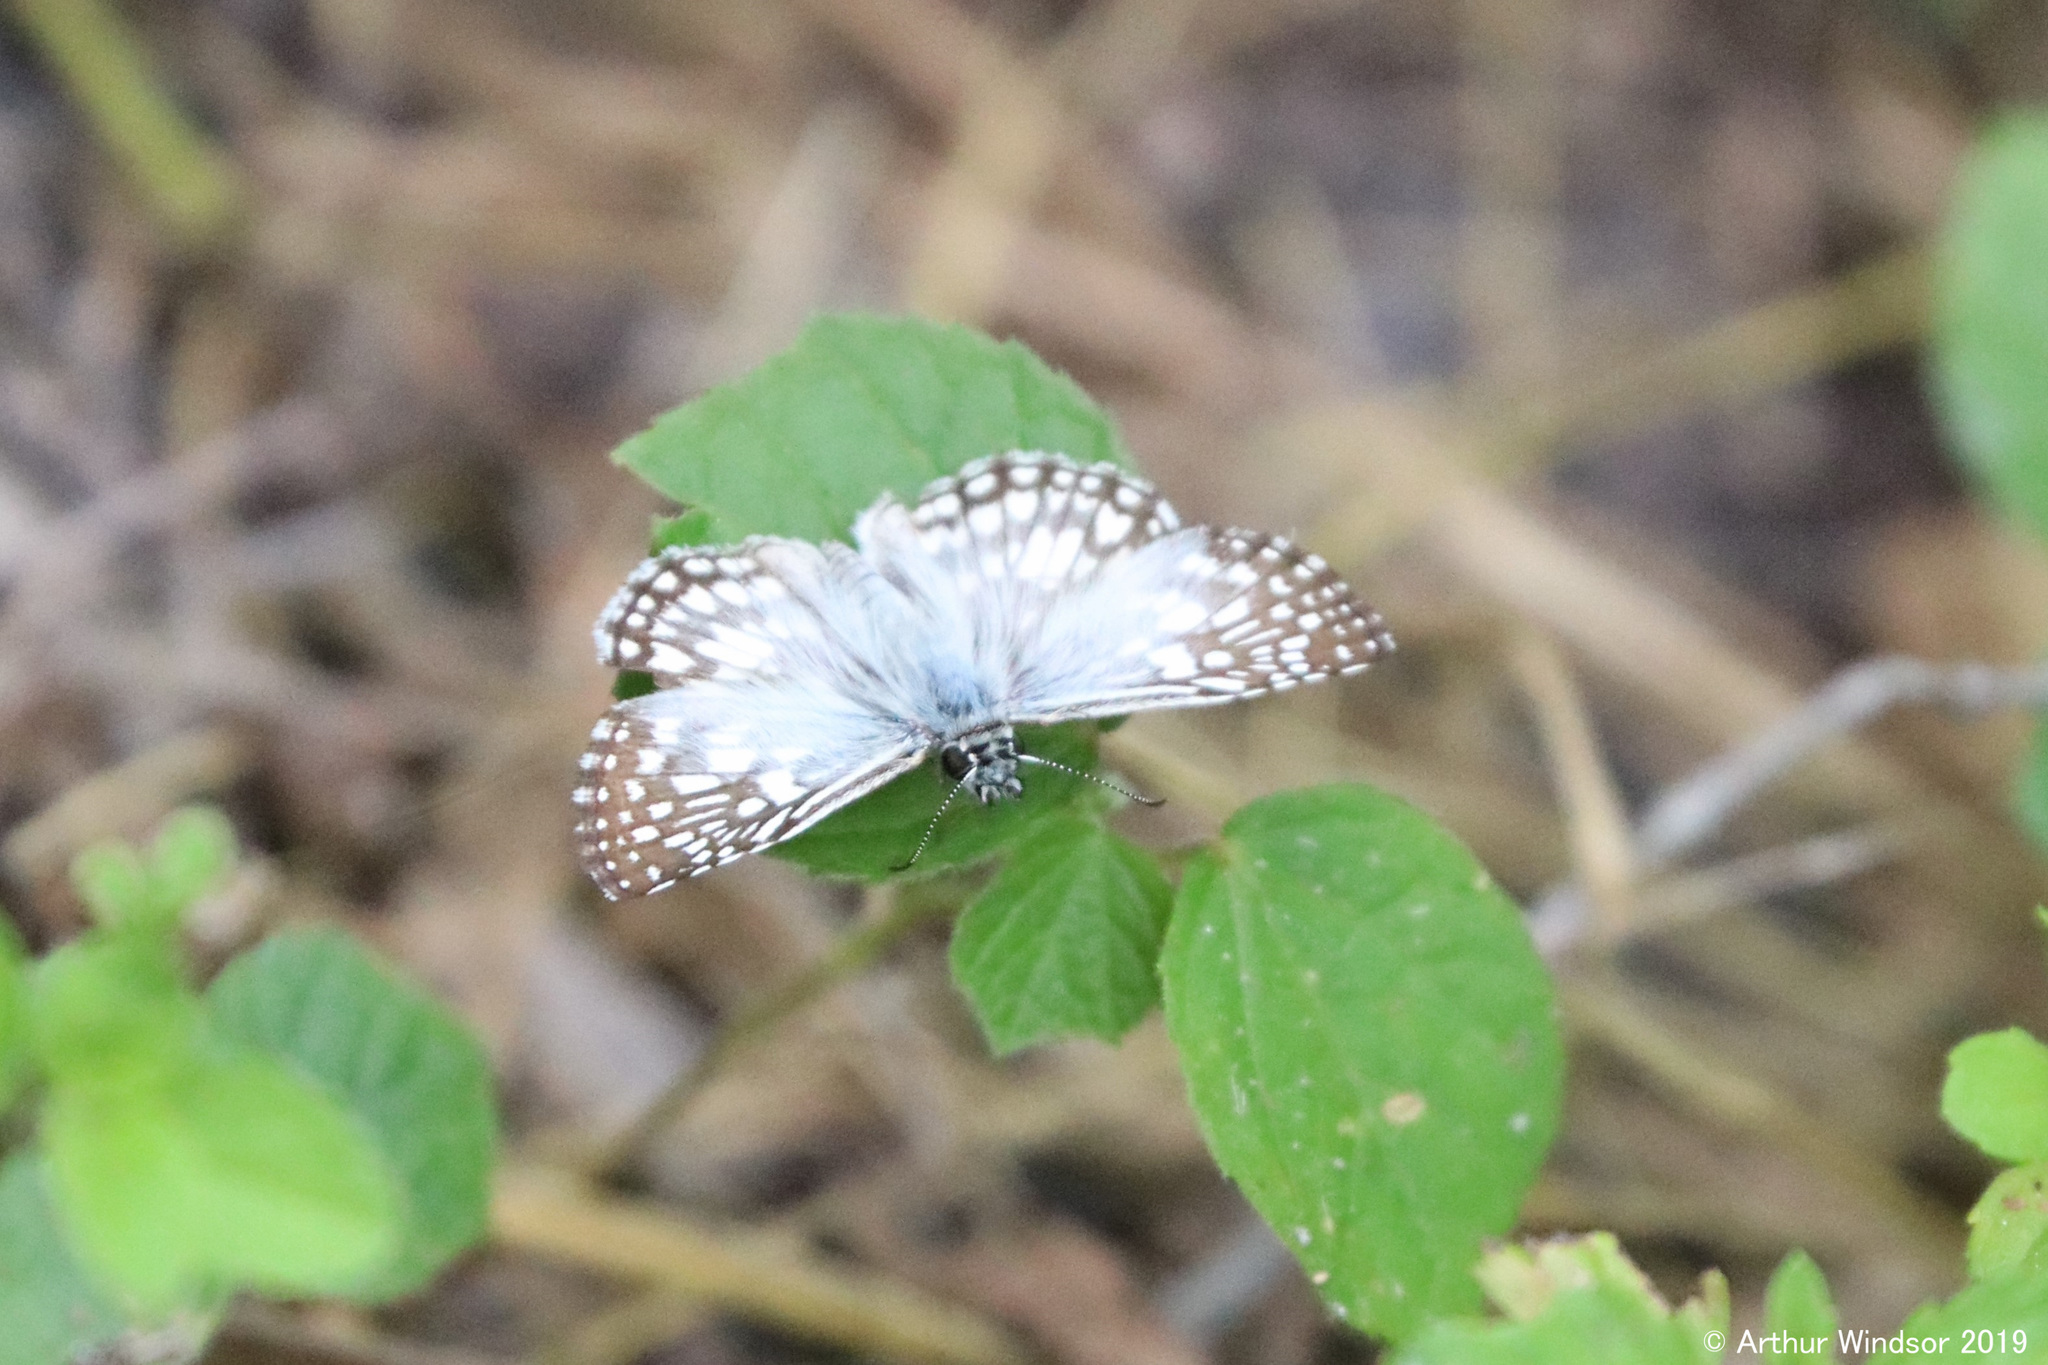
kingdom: Animalia
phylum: Arthropoda
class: Insecta
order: Lepidoptera
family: Hesperiidae
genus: Pyrgus
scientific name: Pyrgus oileus
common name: Tropical checkered-skipper
